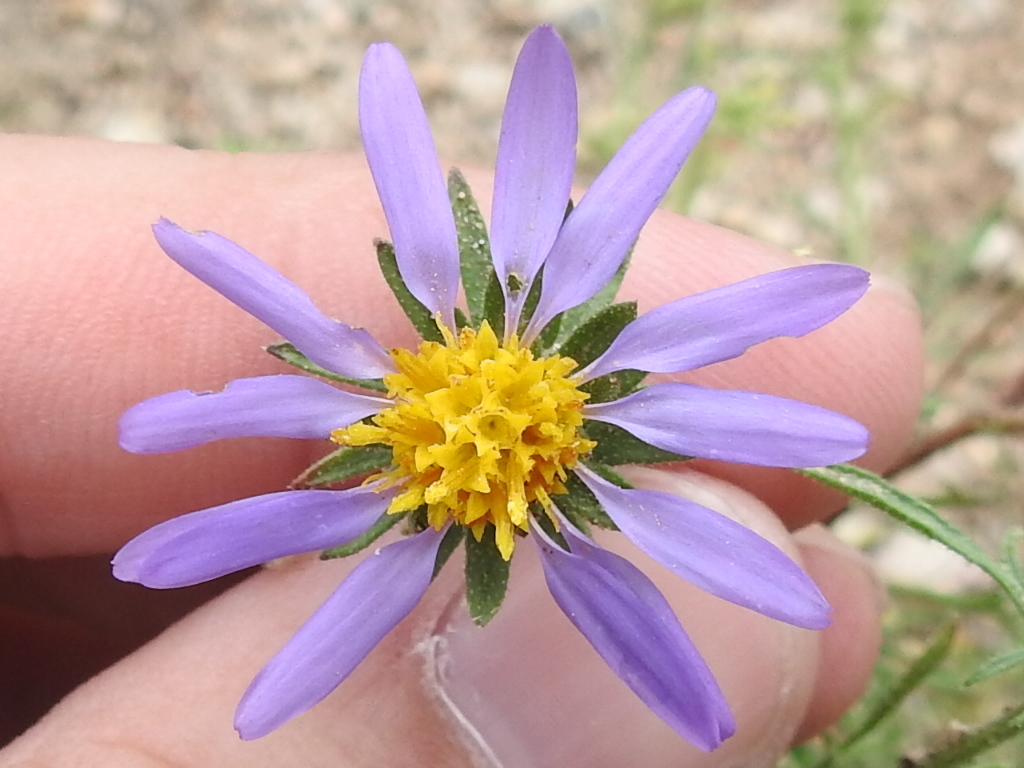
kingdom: Plantae
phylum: Tracheophyta
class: Magnoliopsida
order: Asterales
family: Asteraceae
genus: Machaeranthera
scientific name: Machaeranthera tagetina
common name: Mesa tansy-aster
